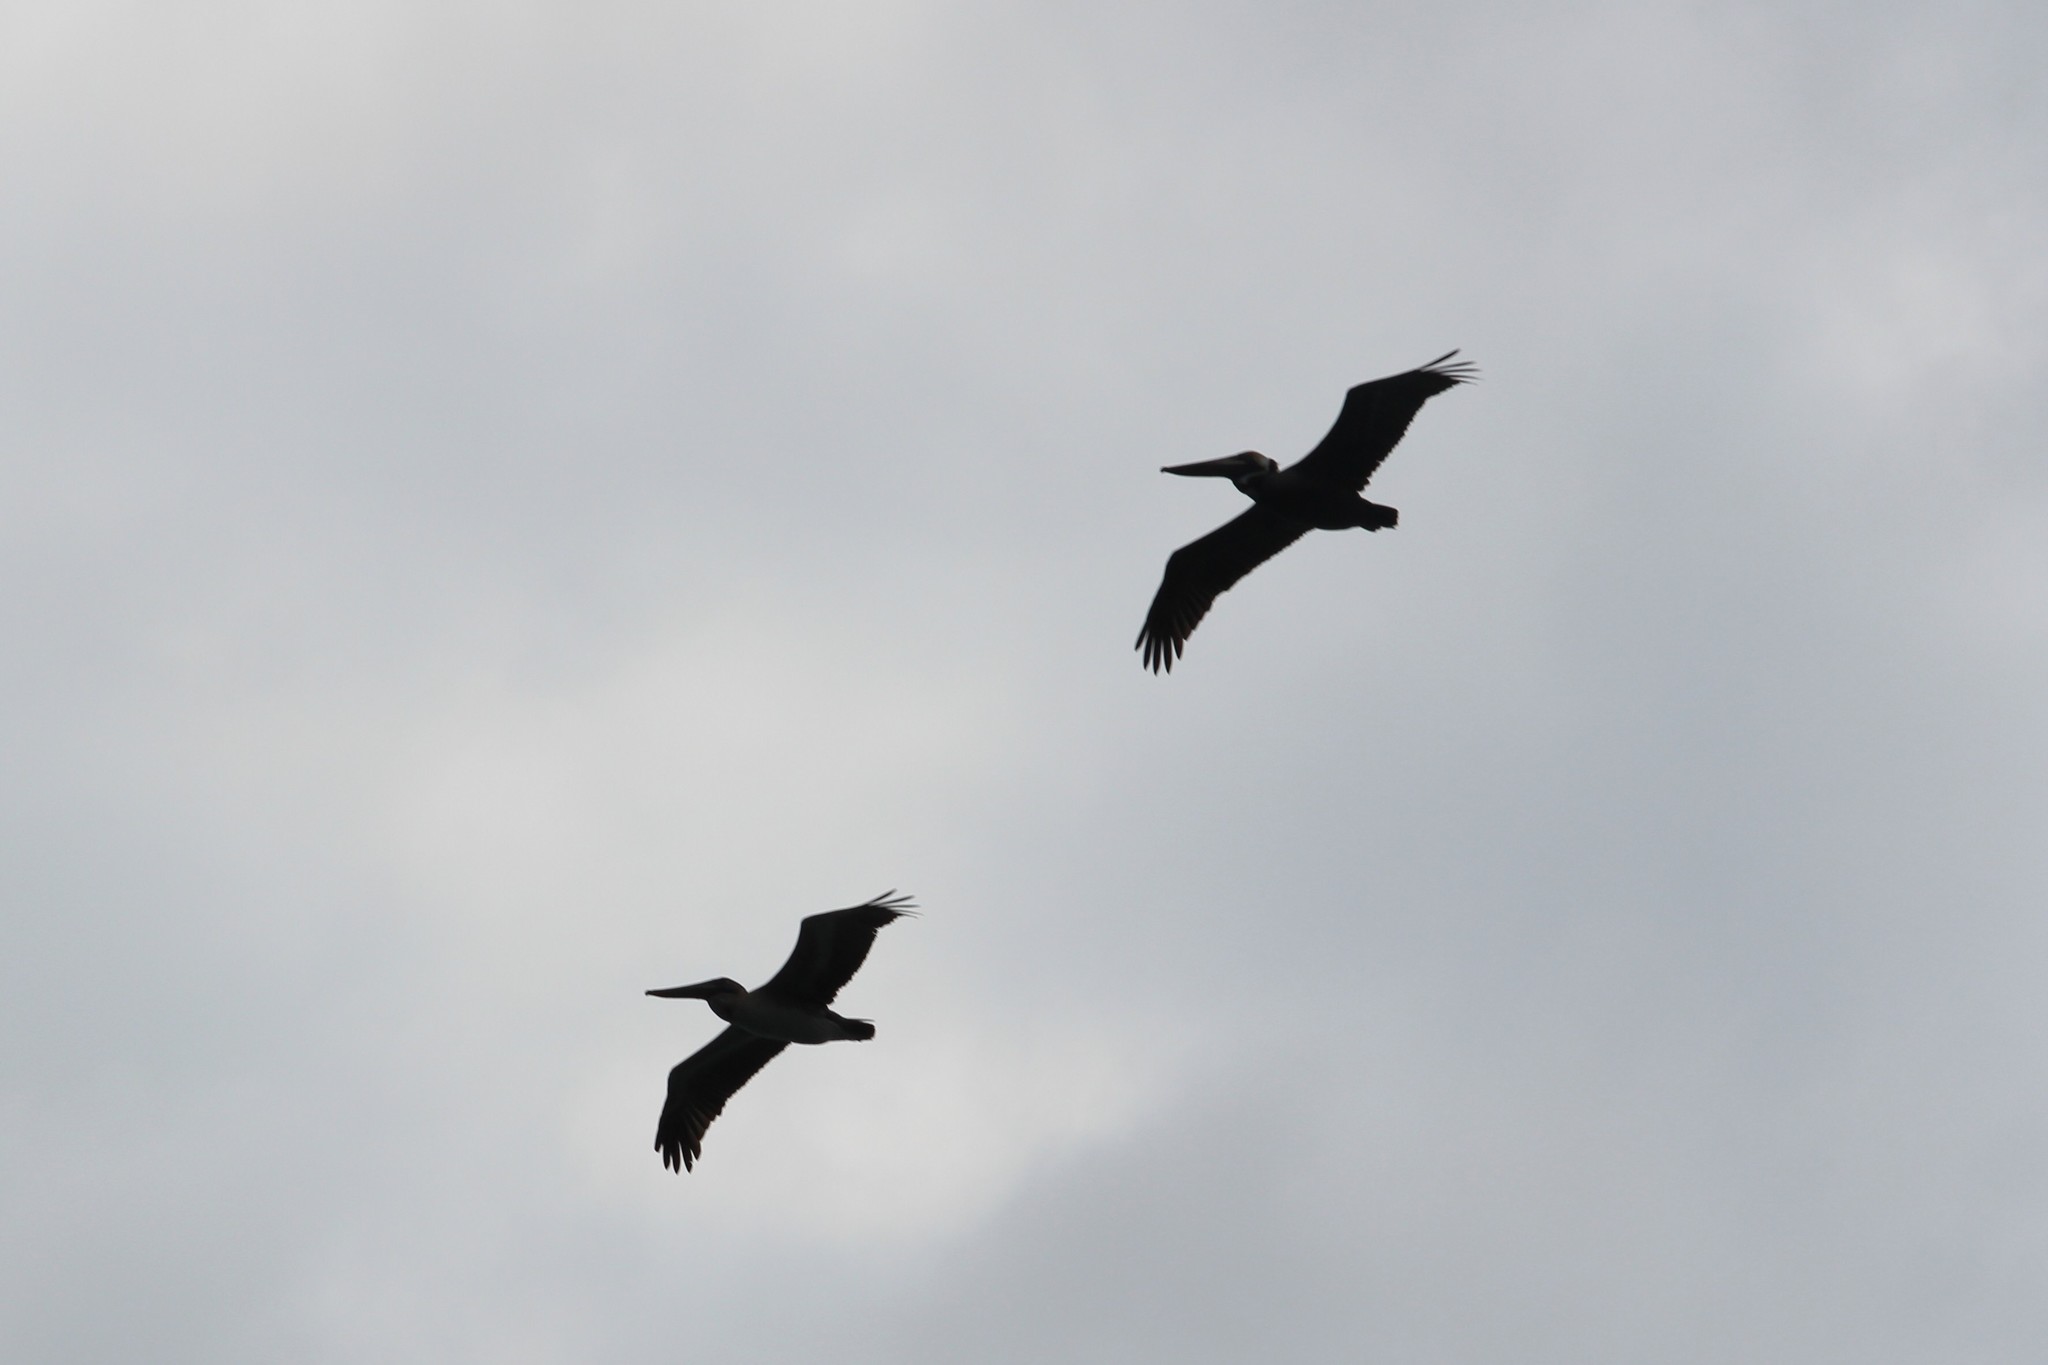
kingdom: Animalia
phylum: Chordata
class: Aves
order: Pelecaniformes
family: Pelecanidae
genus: Pelecanus
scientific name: Pelecanus occidentalis
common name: Brown pelican
